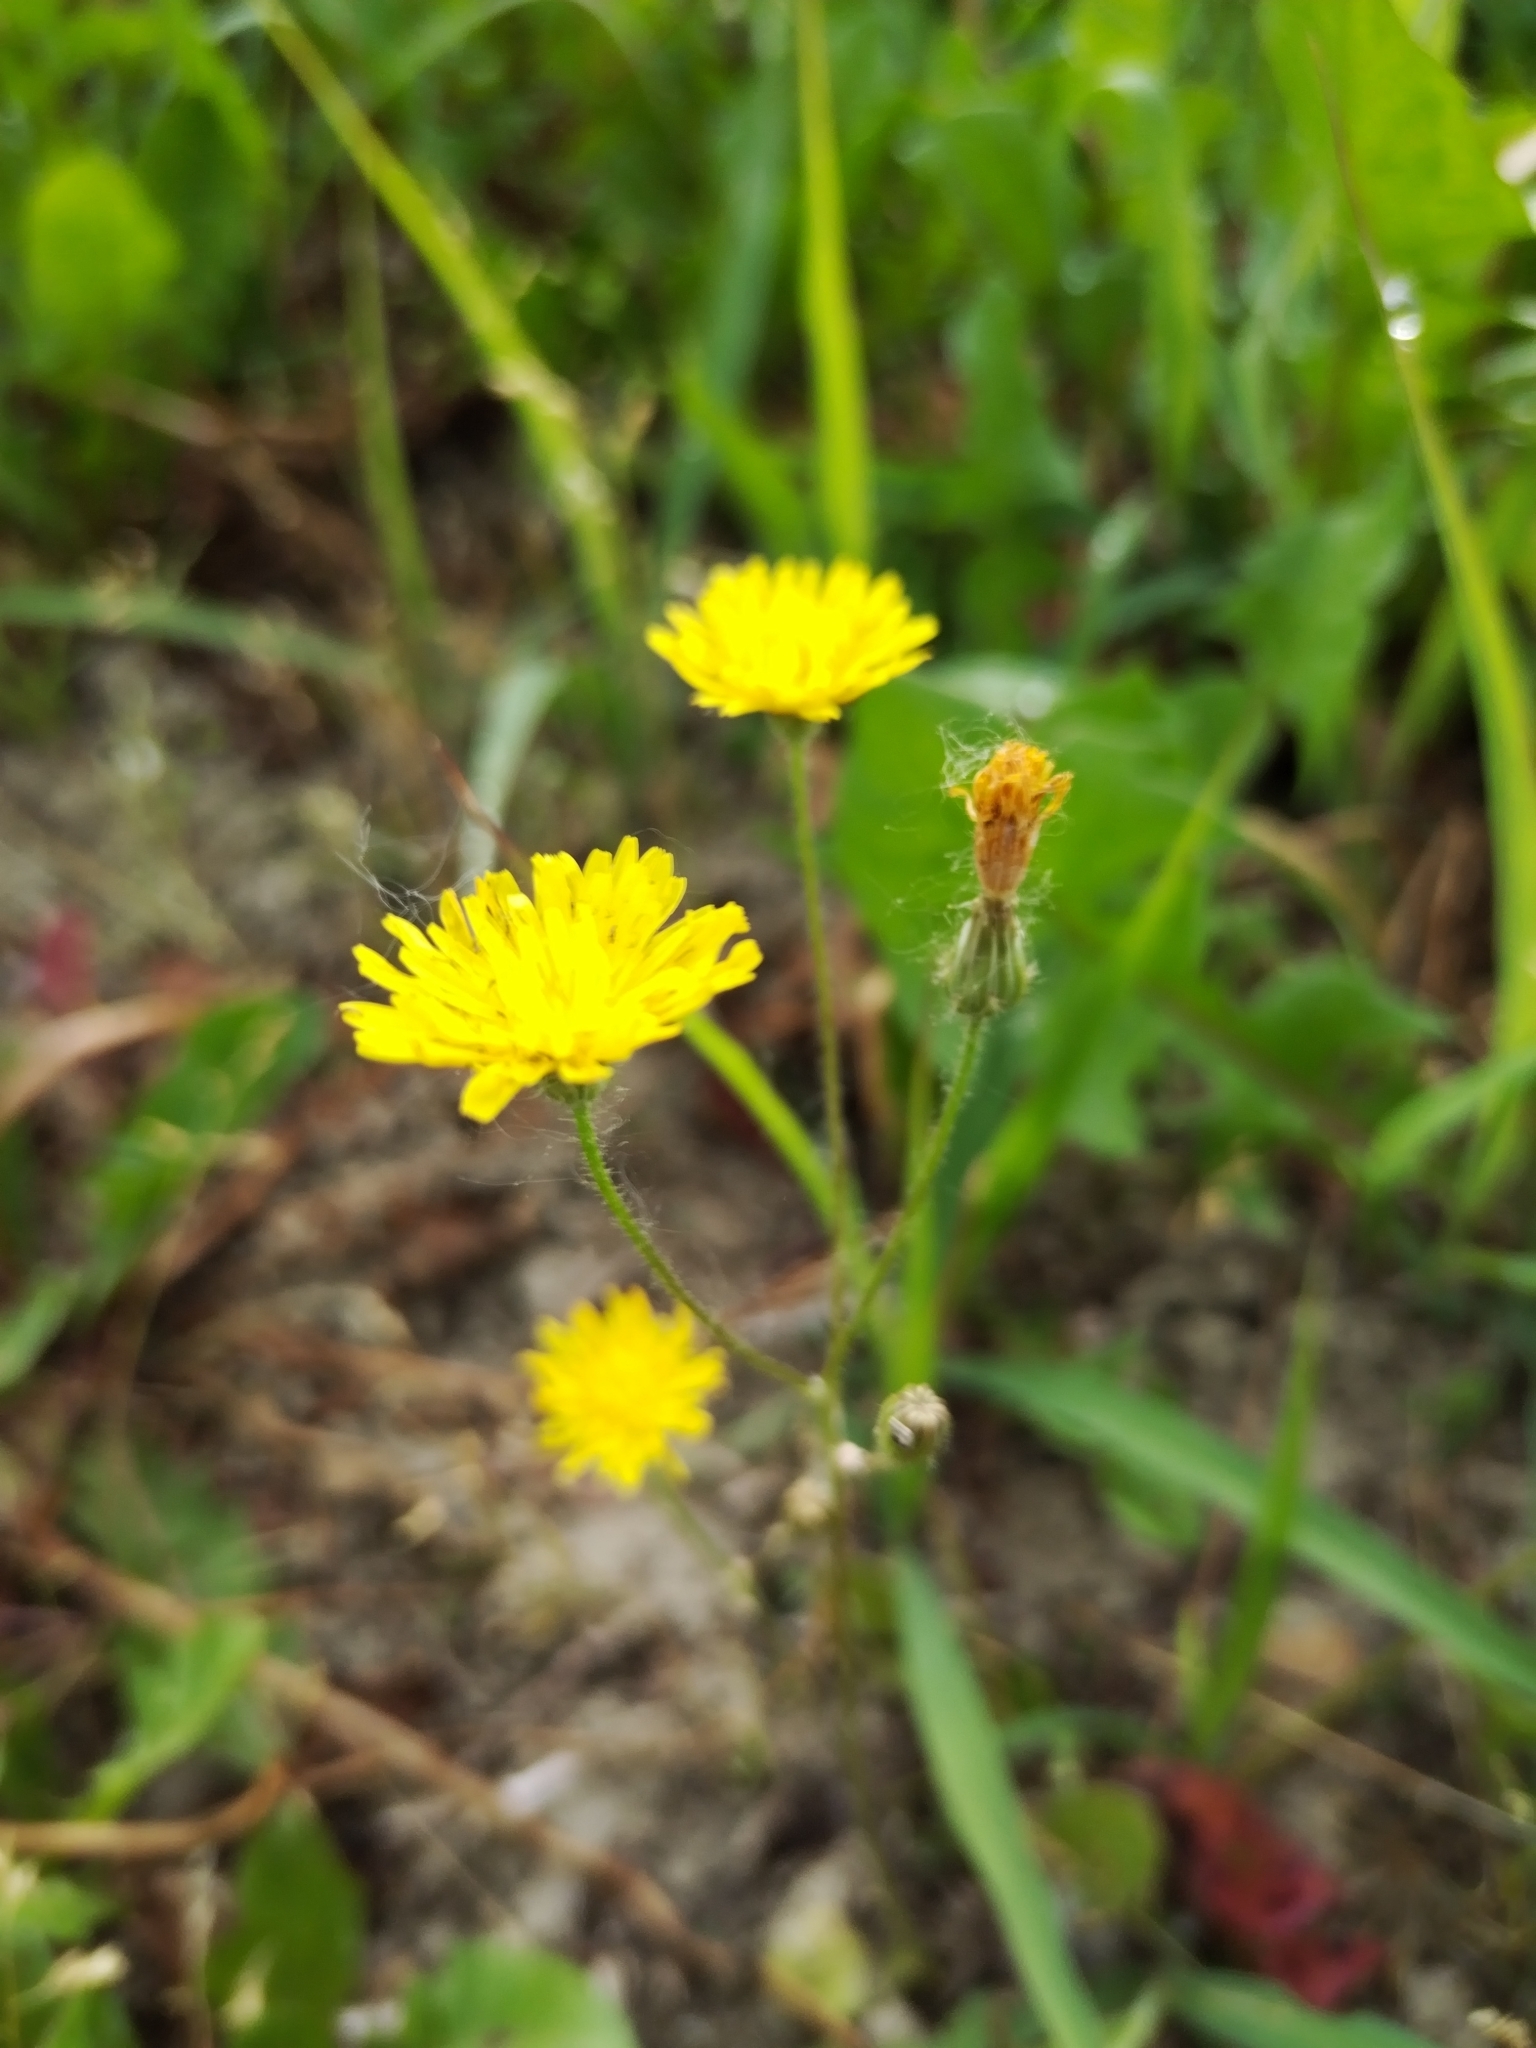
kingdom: Plantae
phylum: Tracheophyta
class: Magnoliopsida
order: Asterales
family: Asteraceae
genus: Crepis
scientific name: Crepis sancta
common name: Hawk's-beard
